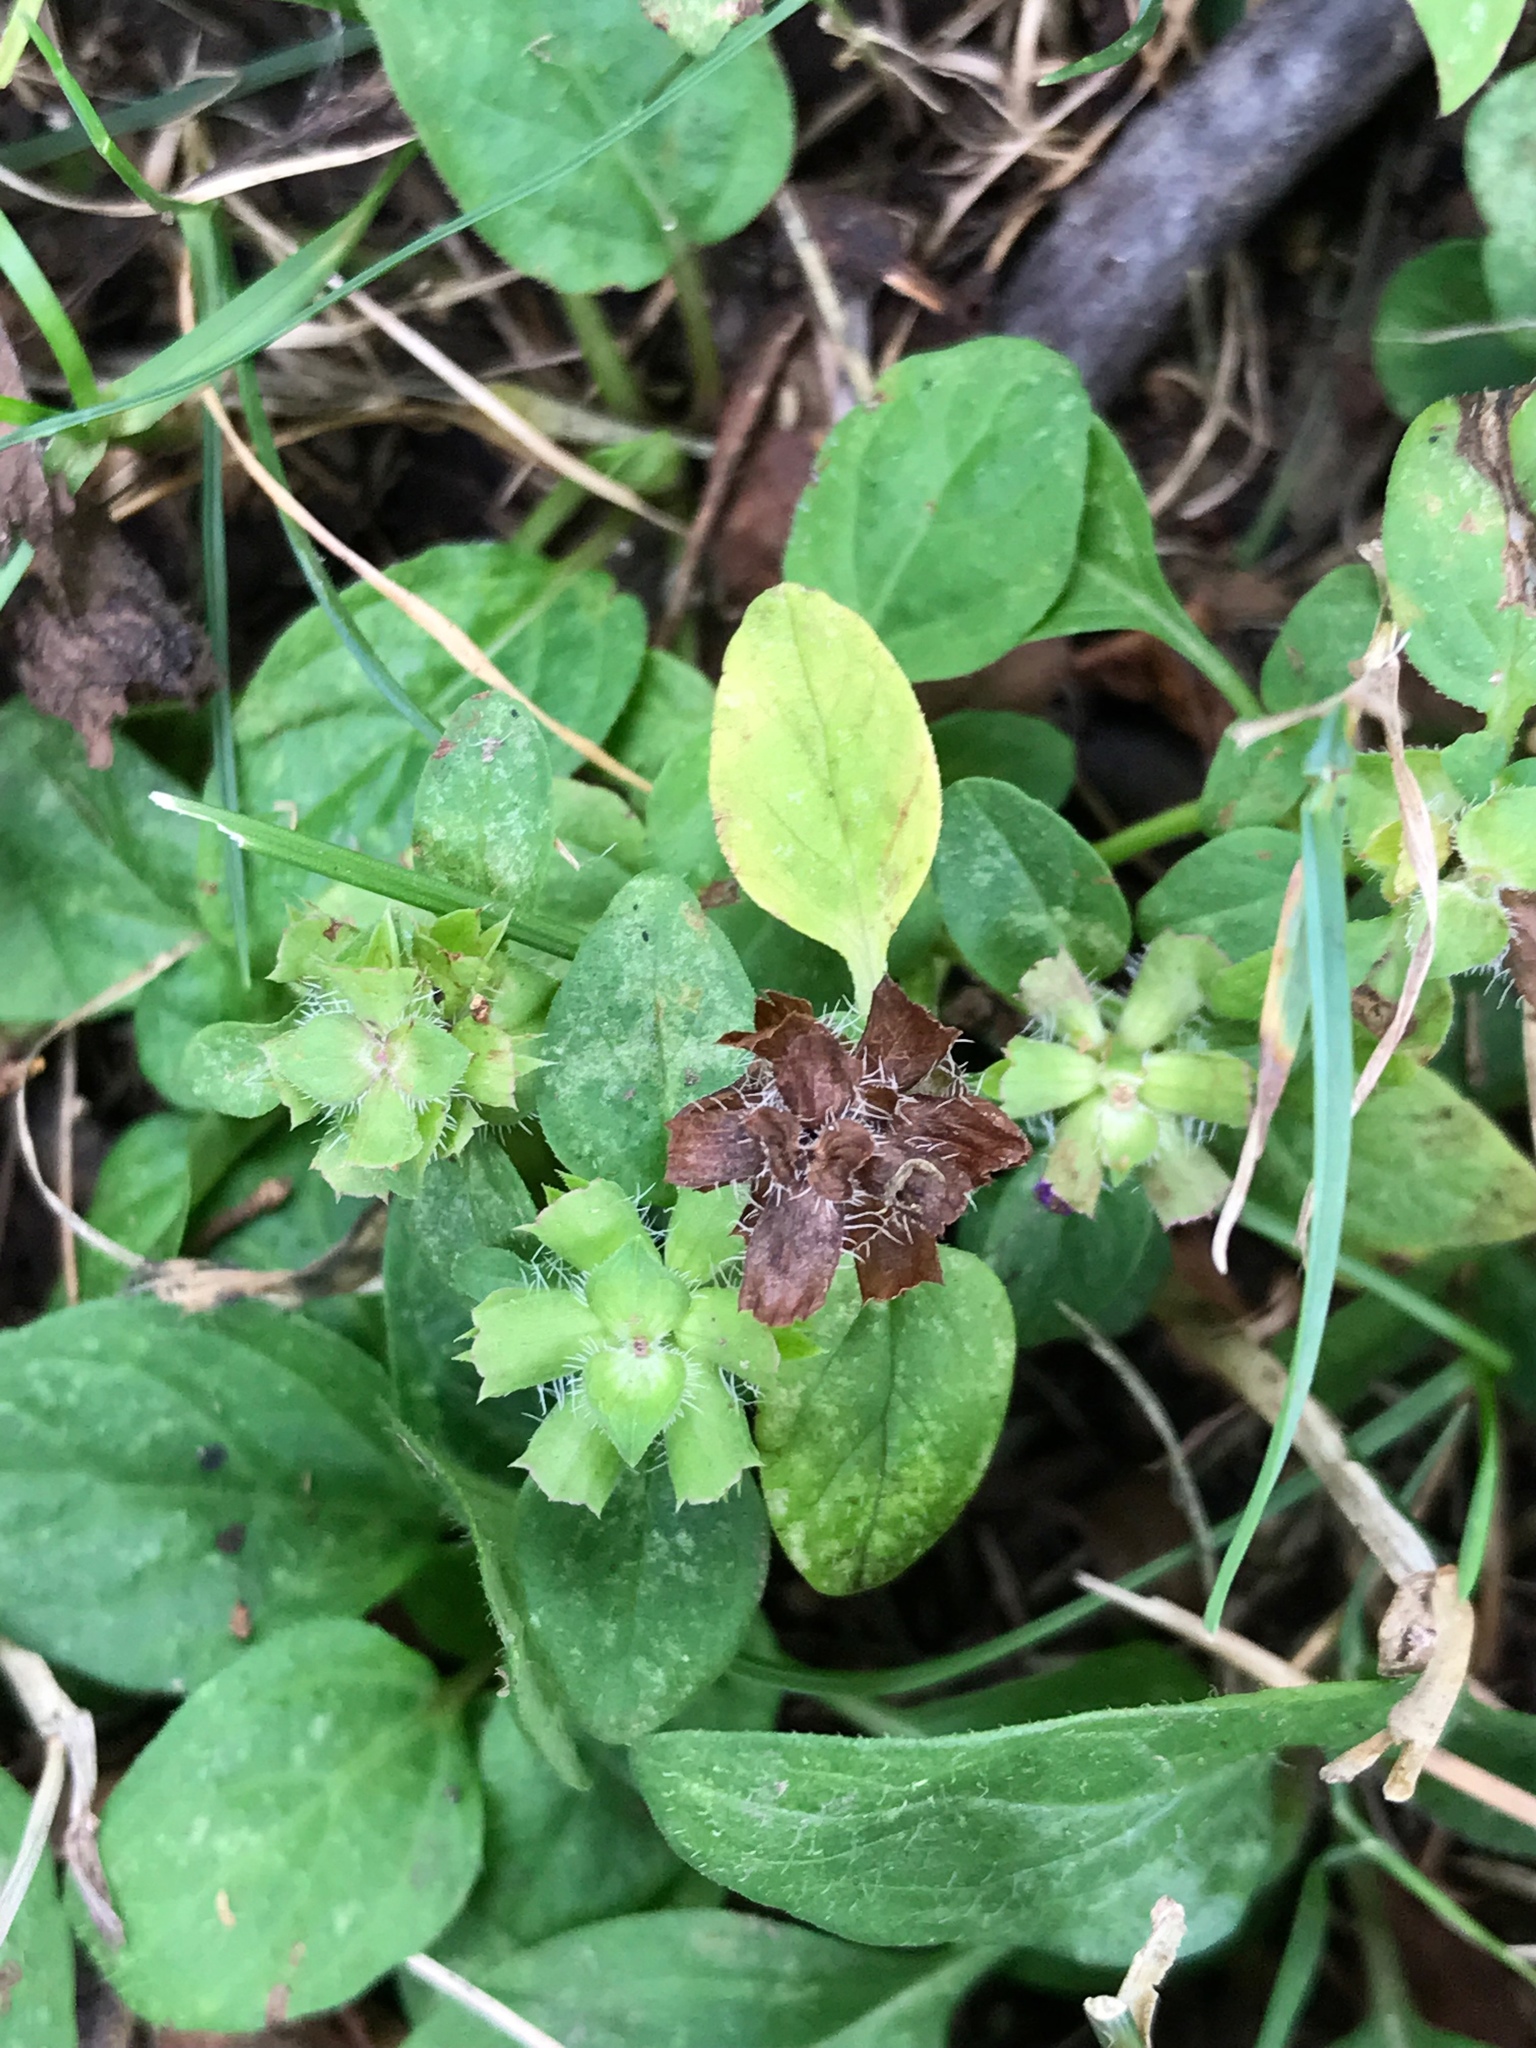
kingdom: Plantae
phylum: Tracheophyta
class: Magnoliopsida
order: Lamiales
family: Lamiaceae
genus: Prunella
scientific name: Prunella vulgaris
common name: Heal-all
